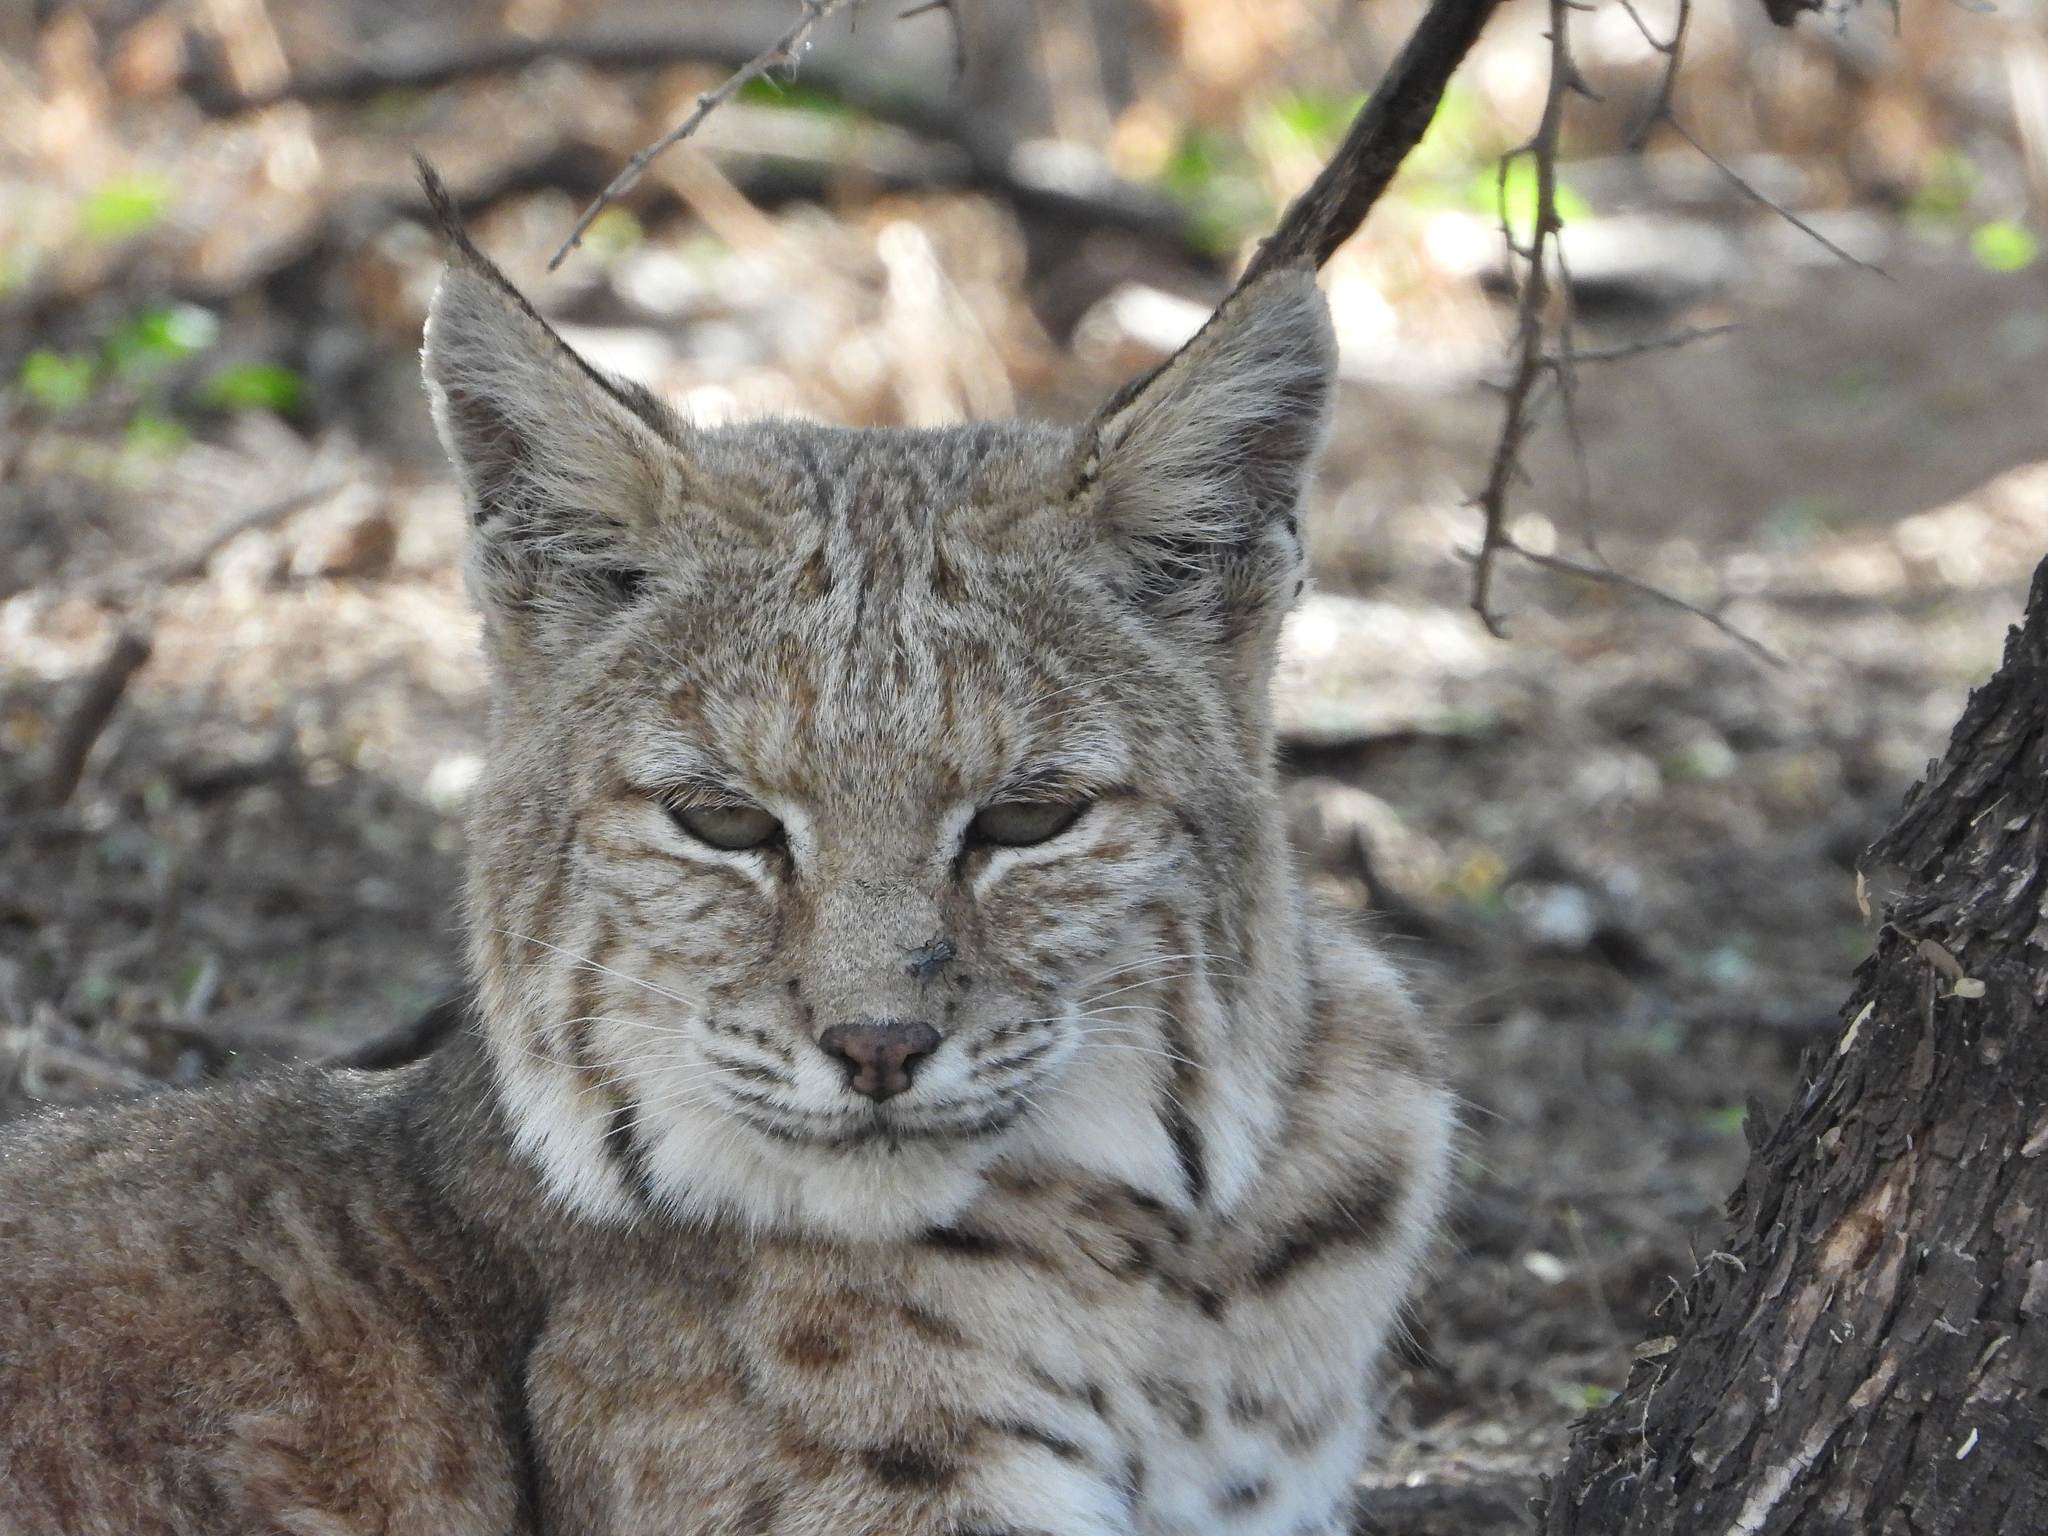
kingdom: Animalia
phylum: Chordata
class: Mammalia
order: Carnivora
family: Felidae
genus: Lynx
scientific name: Lynx rufus
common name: Bobcat
